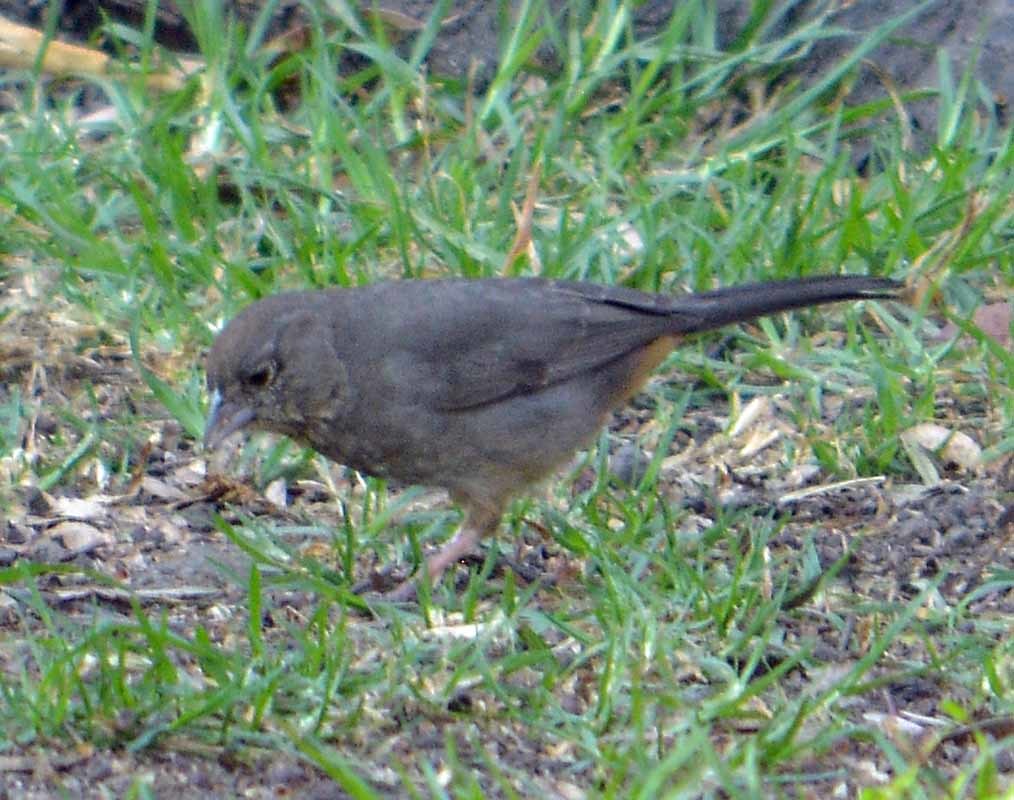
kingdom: Animalia
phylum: Chordata
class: Aves
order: Passeriformes
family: Passerellidae
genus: Melozone
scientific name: Melozone fusca
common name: Canyon towhee
